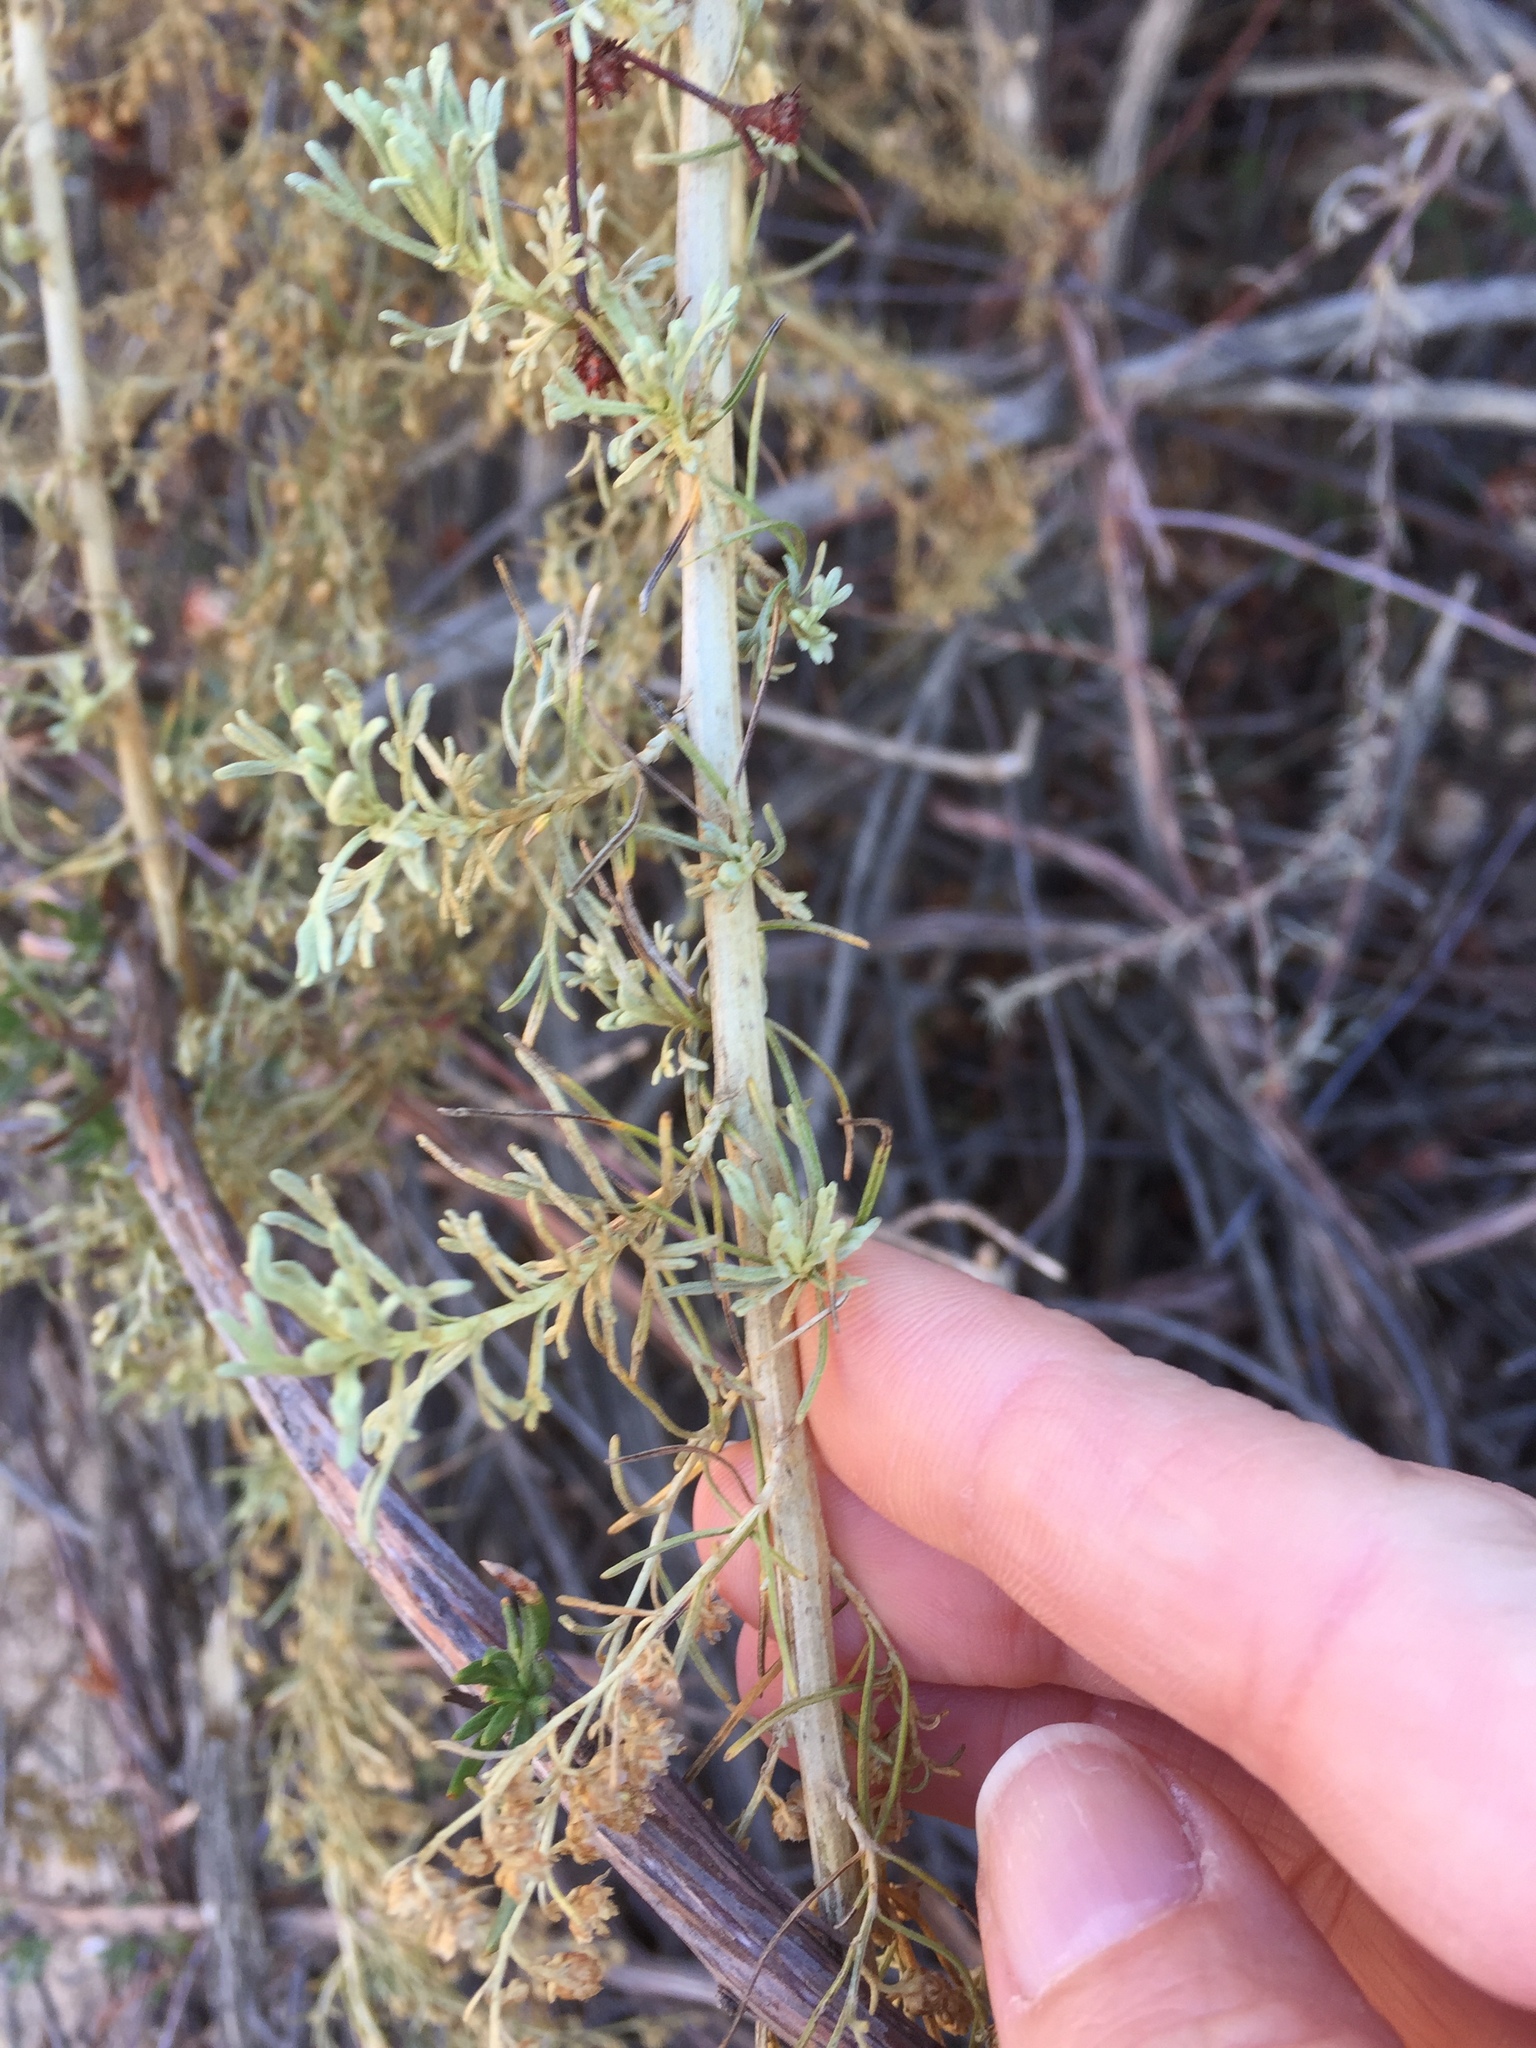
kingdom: Plantae
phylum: Tracheophyta
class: Magnoliopsida
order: Asterales
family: Asteraceae
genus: Artemisia
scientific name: Artemisia californica
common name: California sagebrush
